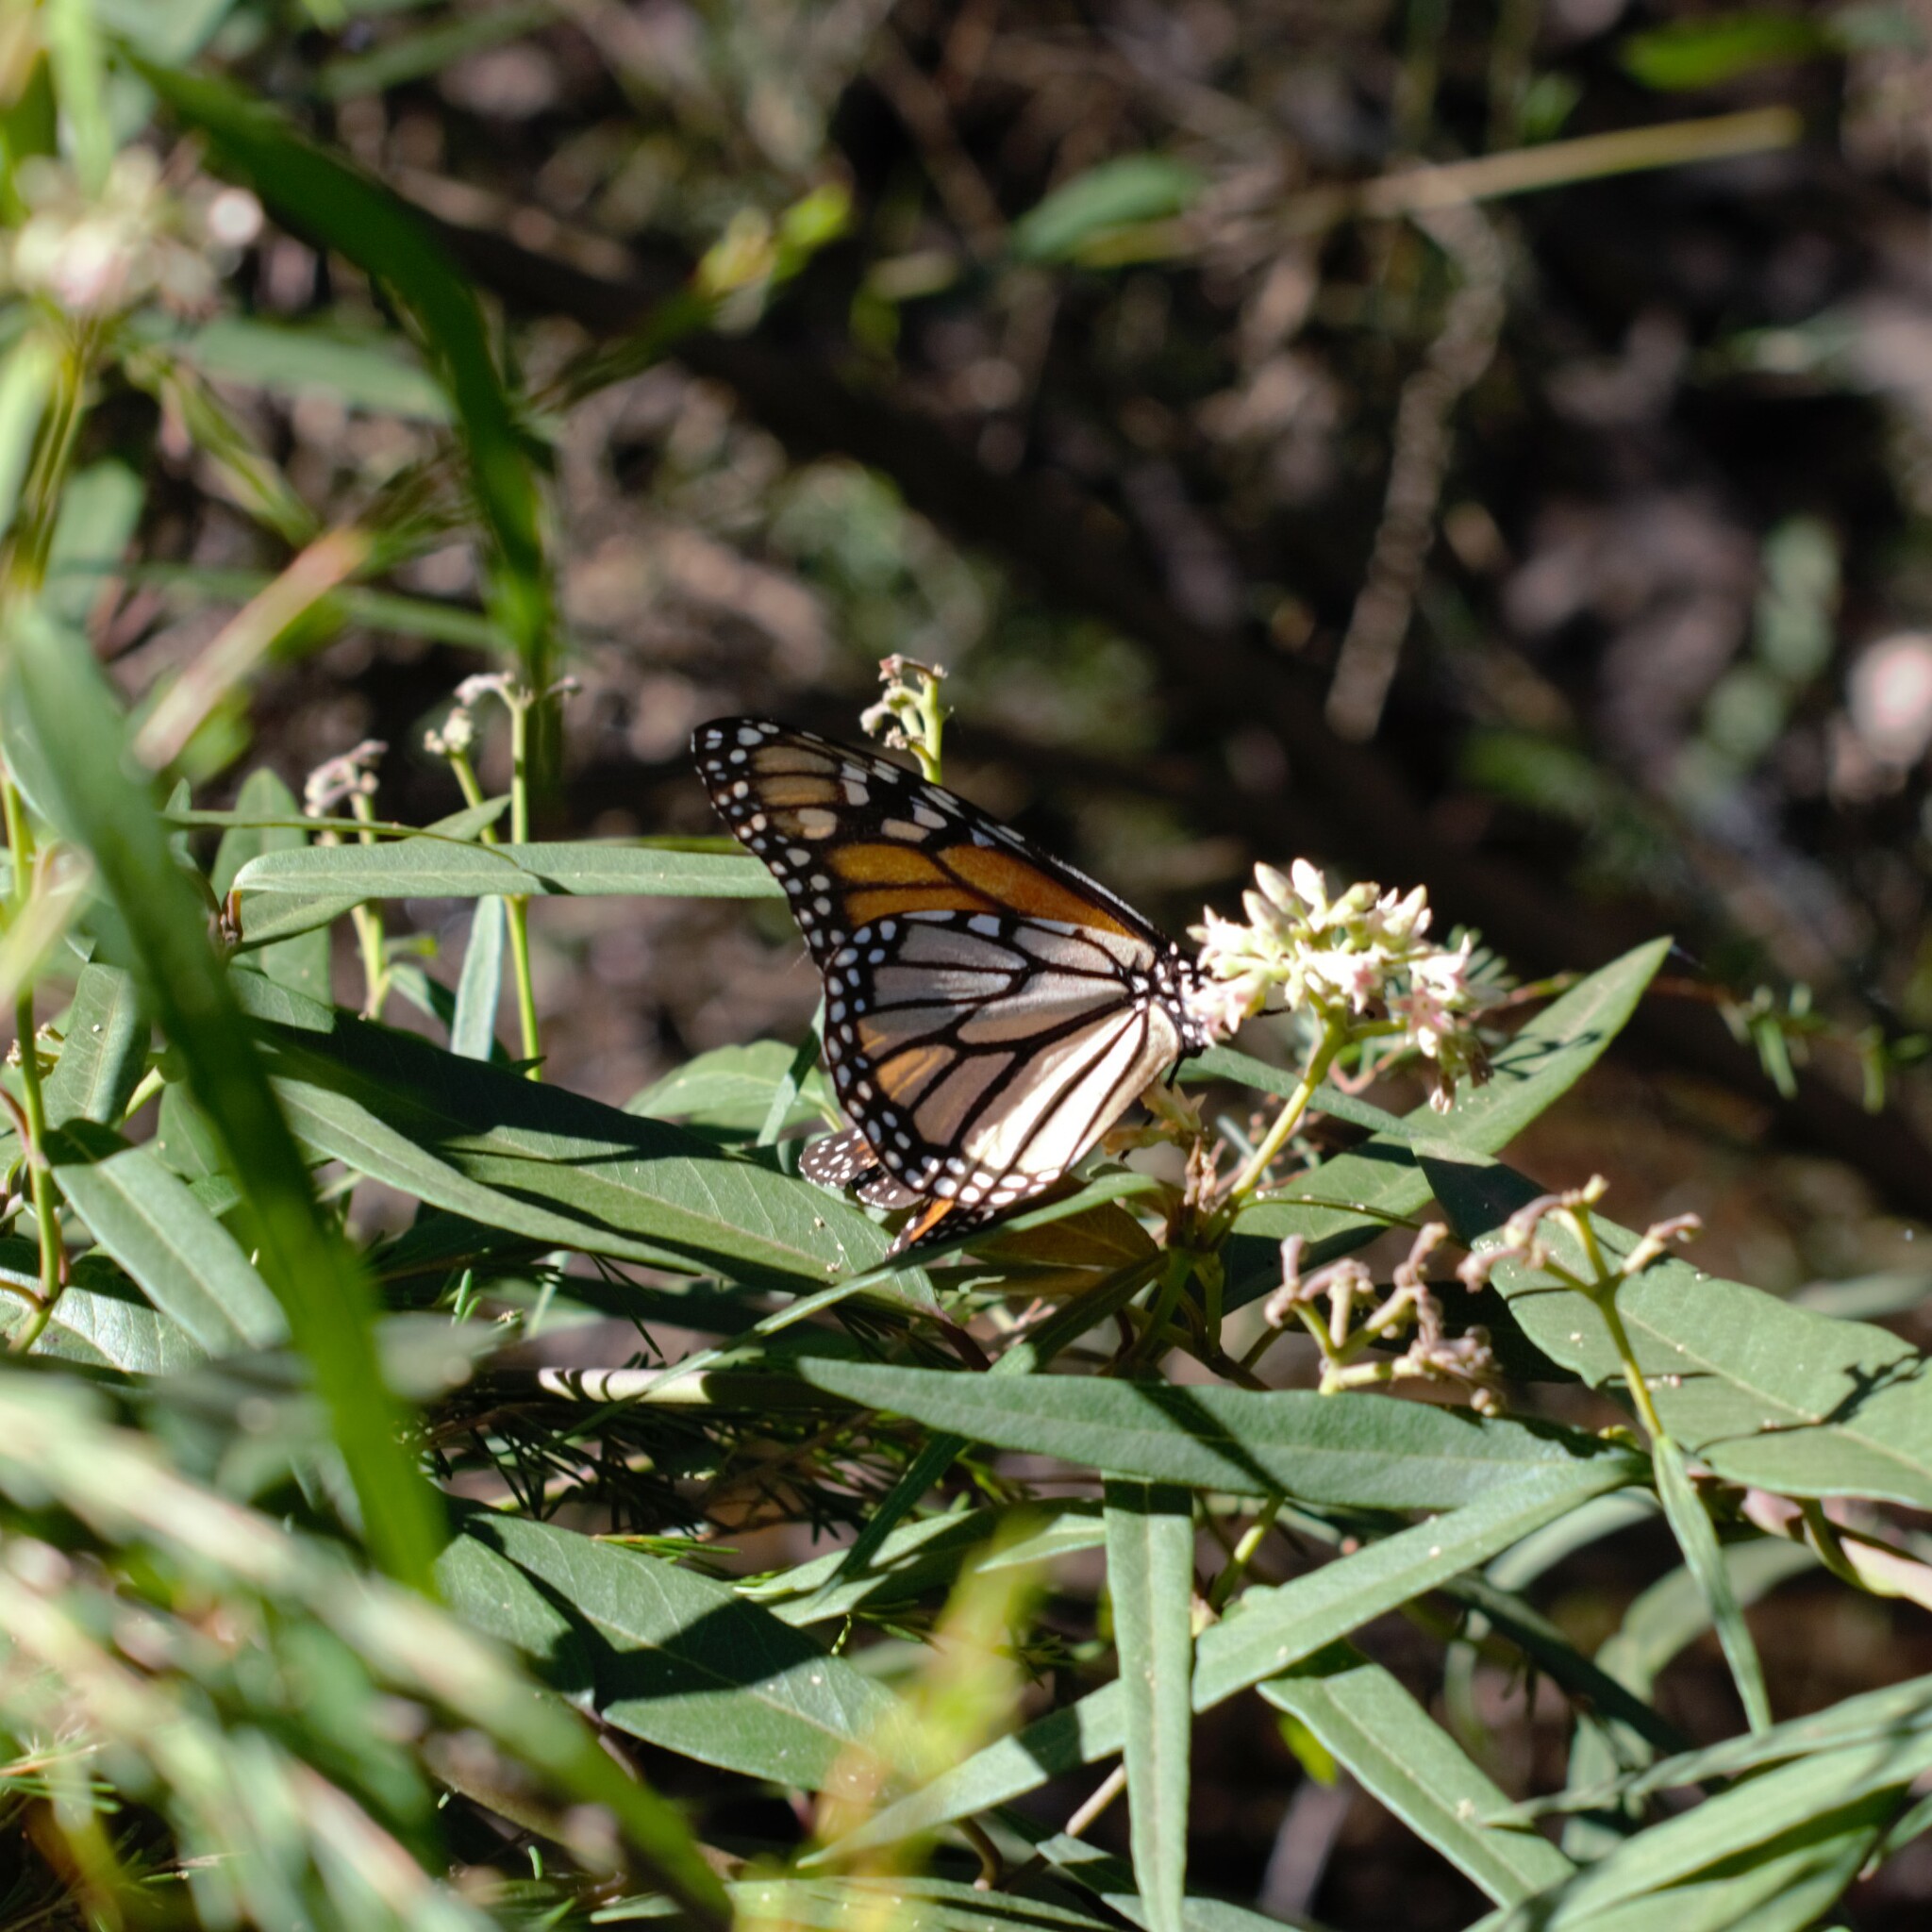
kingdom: Animalia
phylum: Arthropoda
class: Insecta
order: Lepidoptera
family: Nymphalidae
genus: Danaus
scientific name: Danaus plexippus
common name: Monarch
